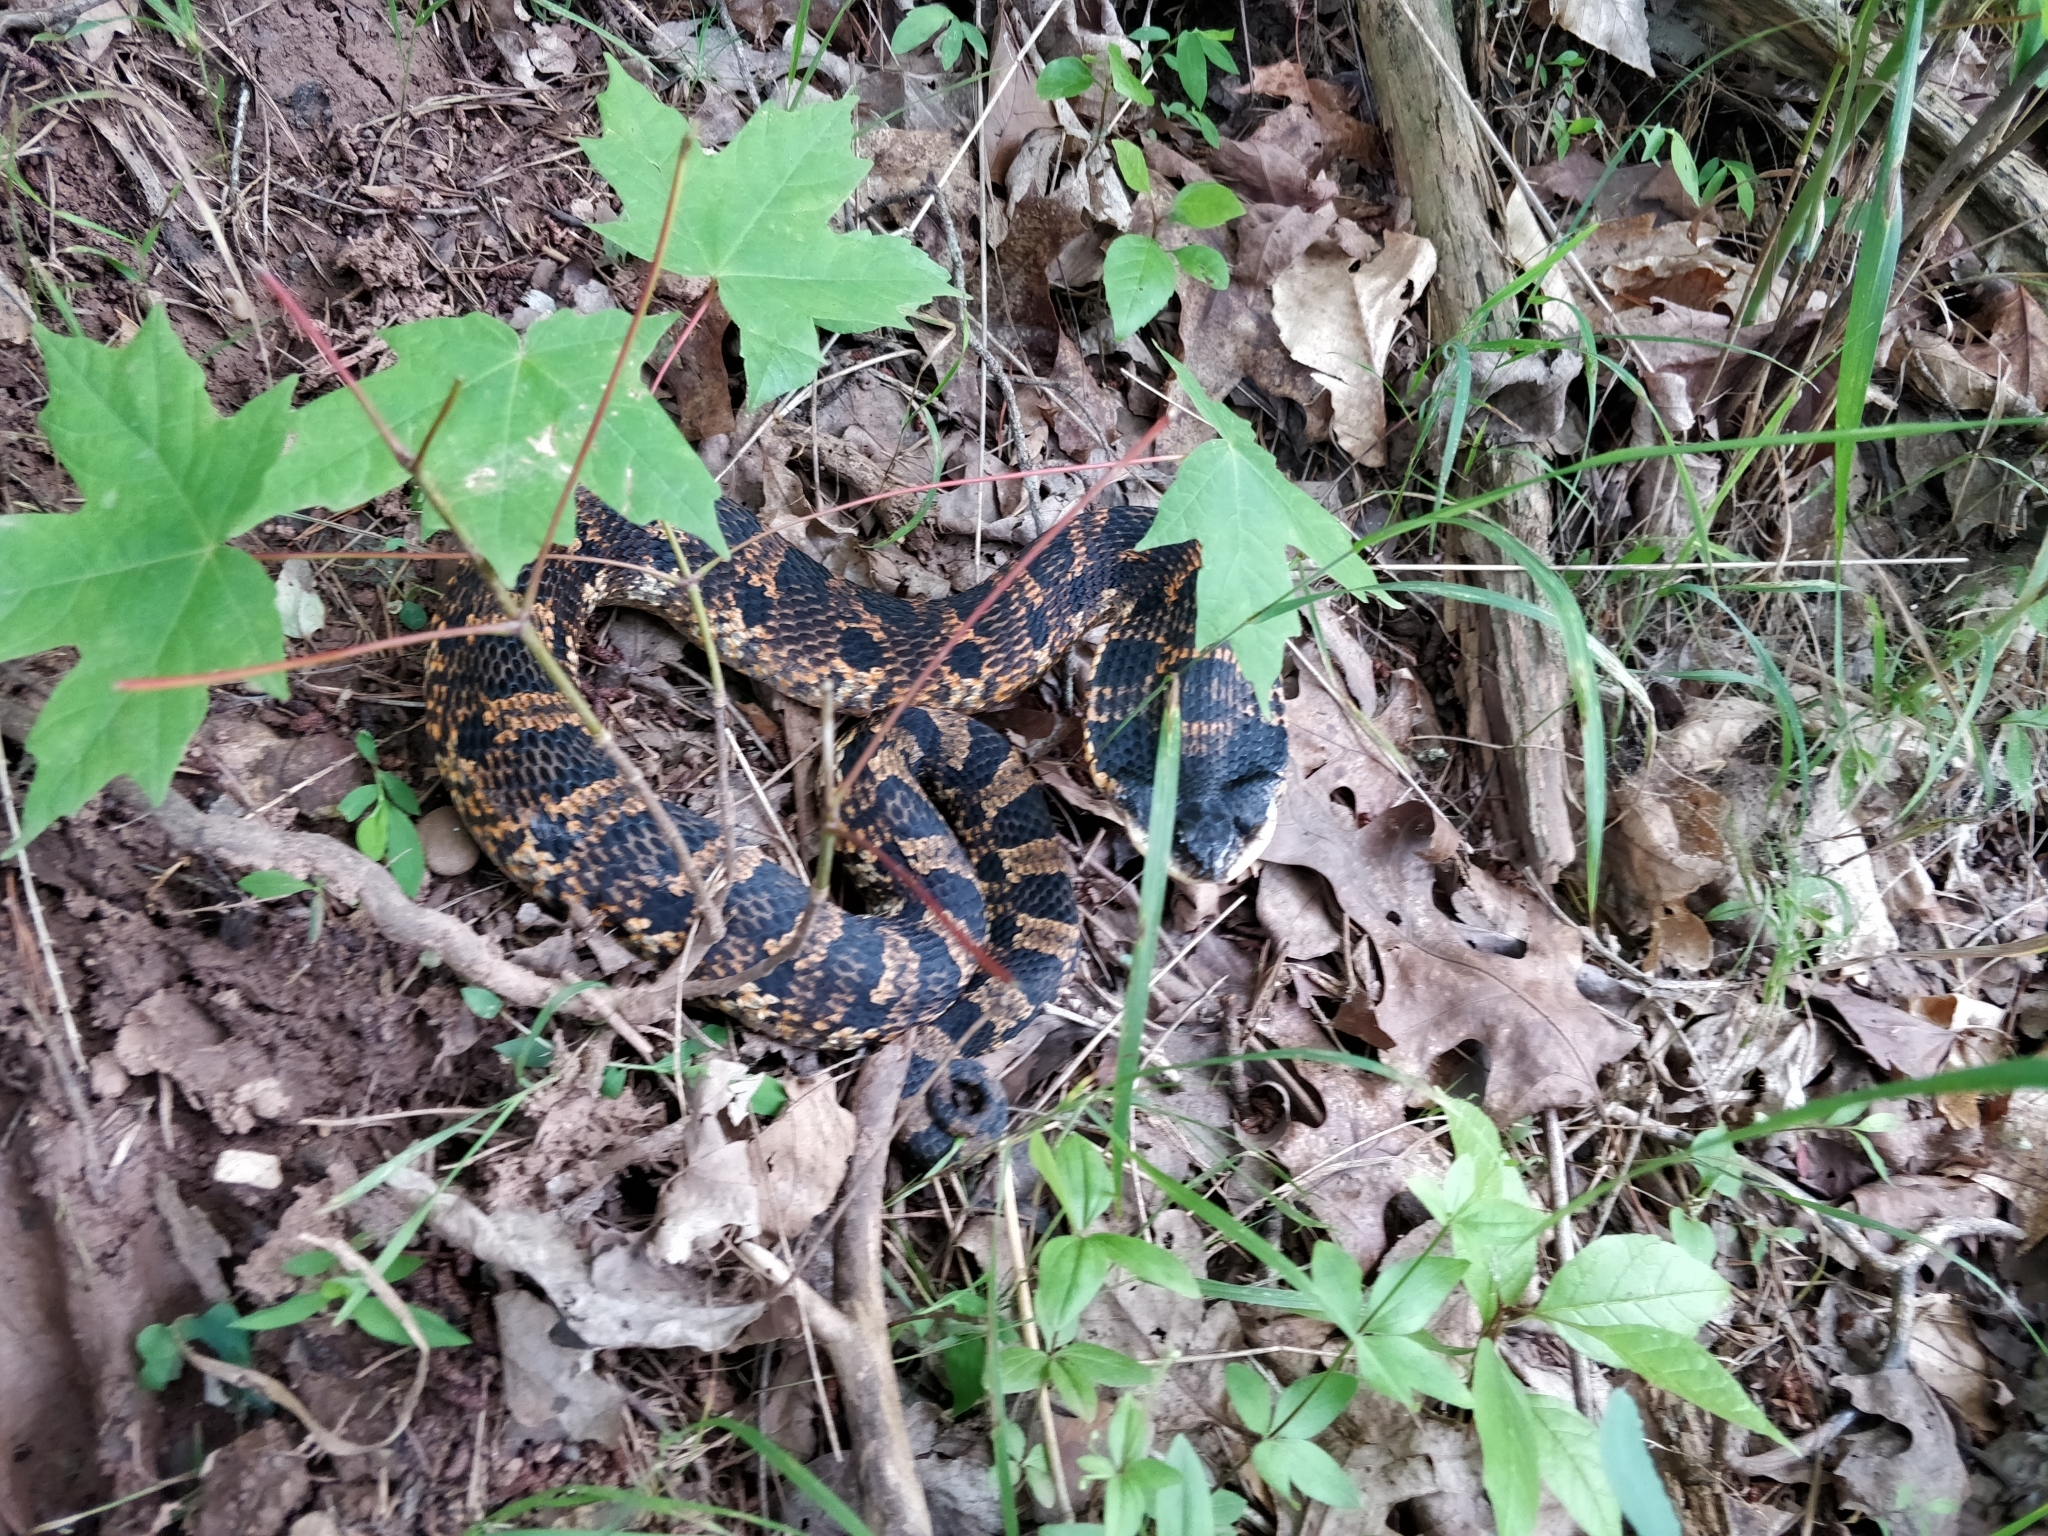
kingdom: Animalia
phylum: Chordata
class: Squamata
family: Colubridae
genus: Heterodon
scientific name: Heterodon platirhinos
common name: Eastern hognose snake
